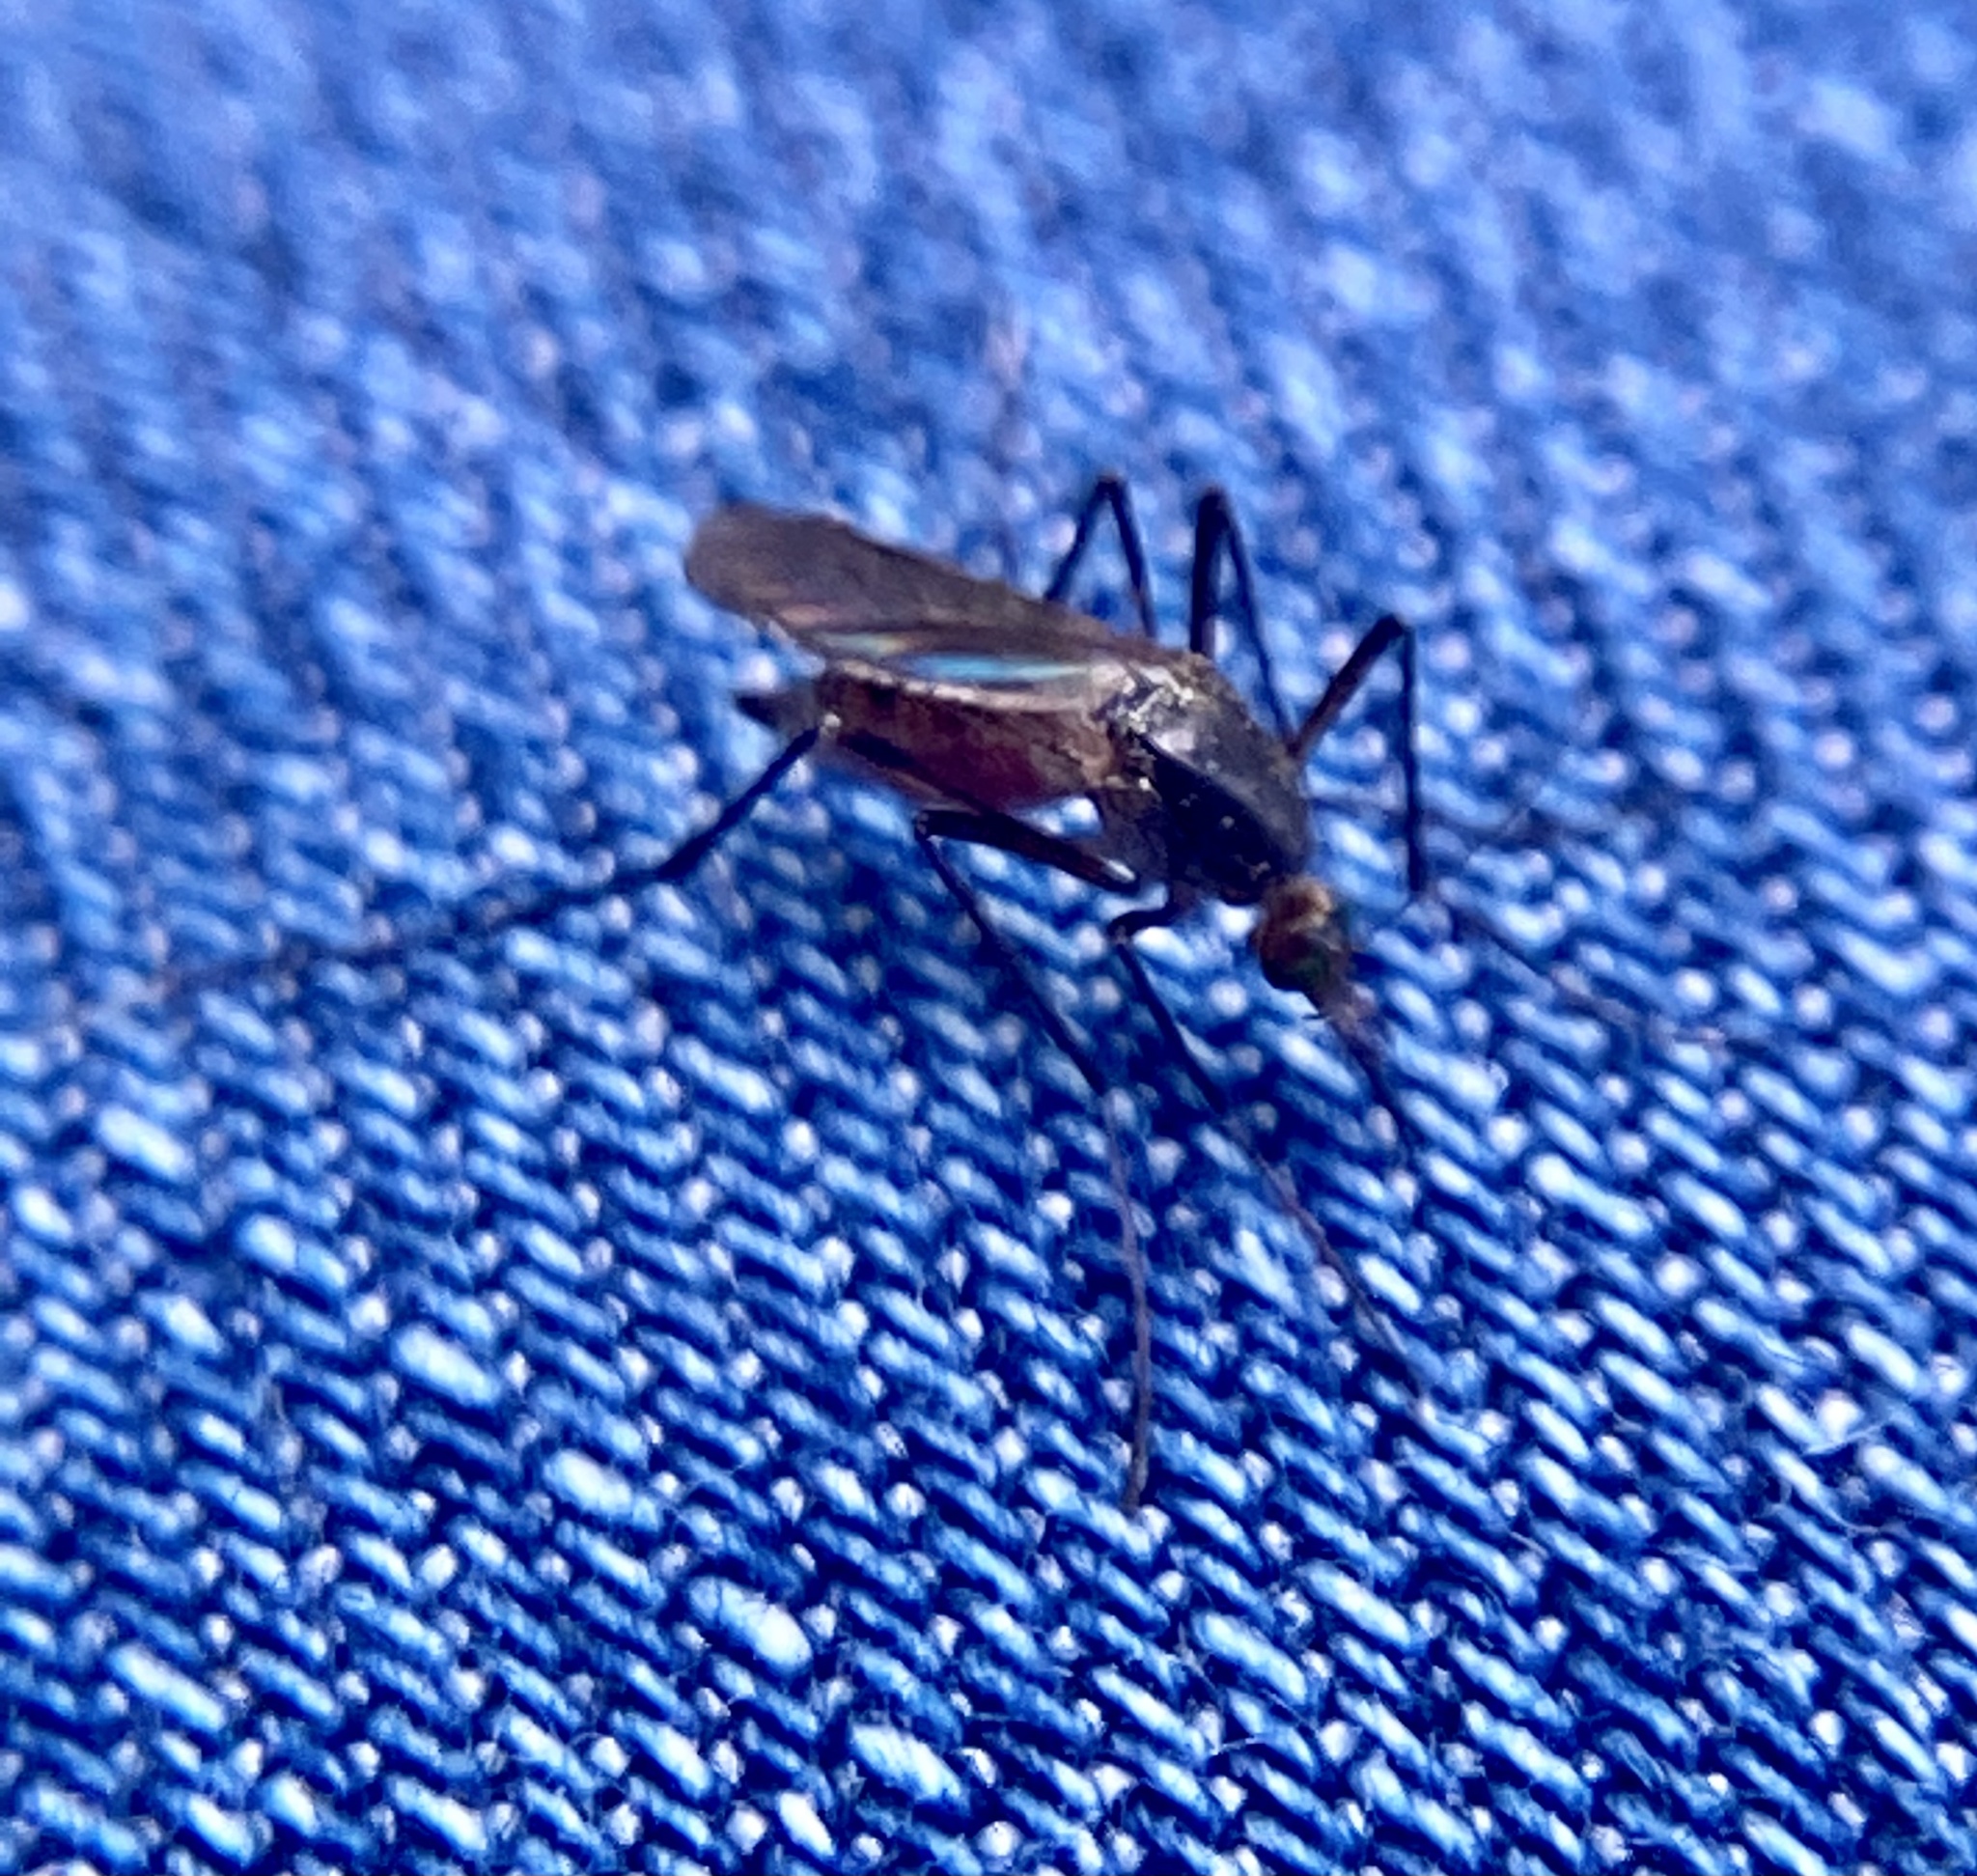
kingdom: Animalia
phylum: Arthropoda
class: Insecta
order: Diptera
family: Culicidae
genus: Psorophora
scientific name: Psorophora ferox
